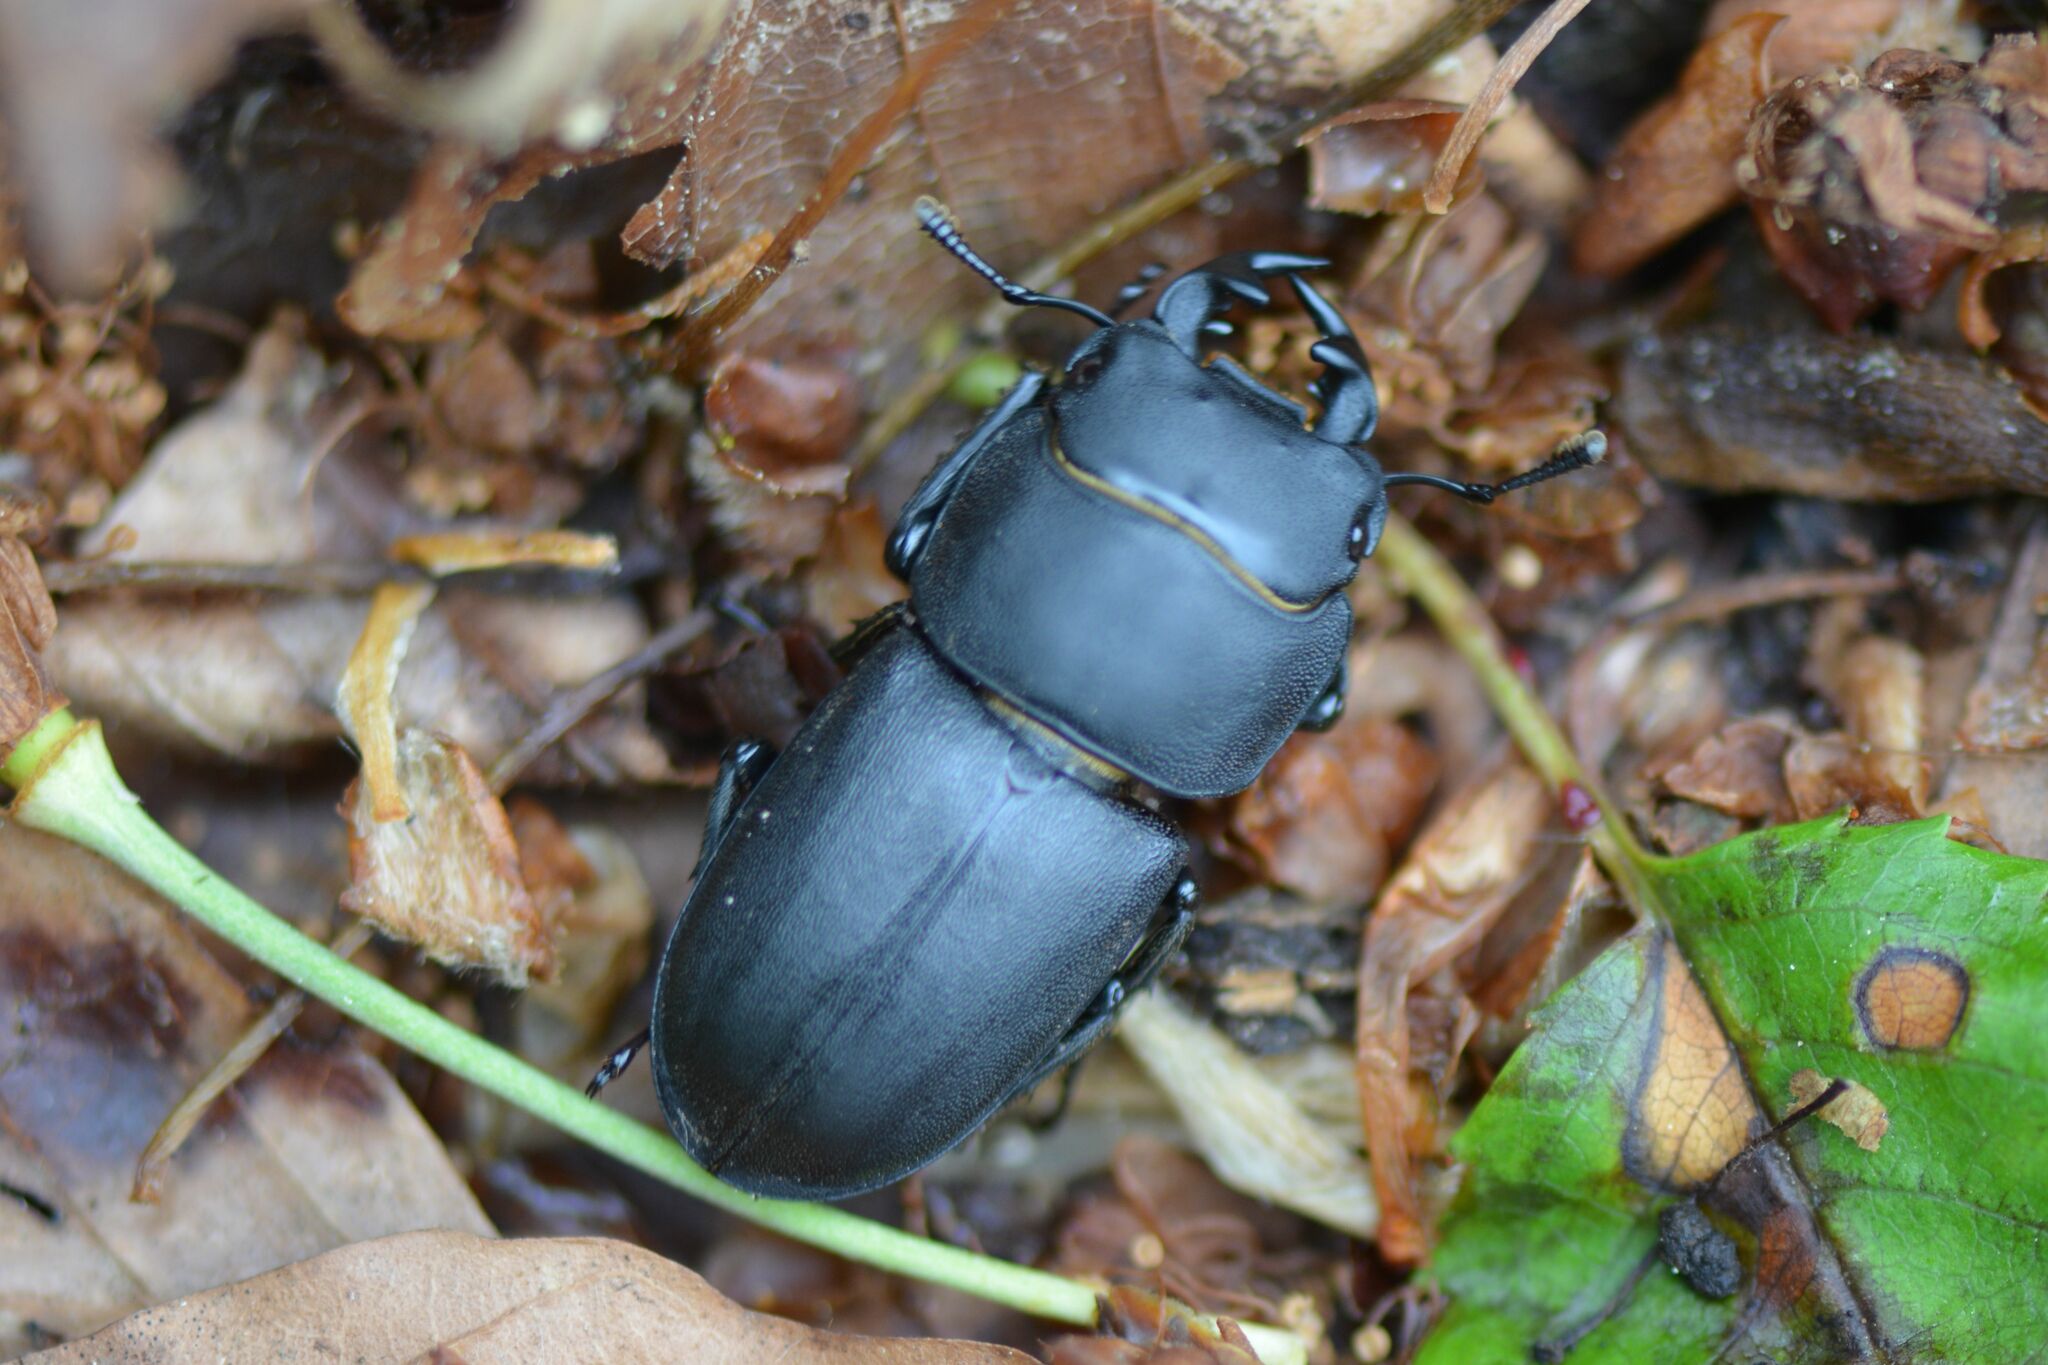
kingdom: Animalia
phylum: Arthropoda
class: Insecta
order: Coleoptera
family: Lucanidae
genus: Dorcus
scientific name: Dorcus parallelipipedus
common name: Lesser stag beetle
